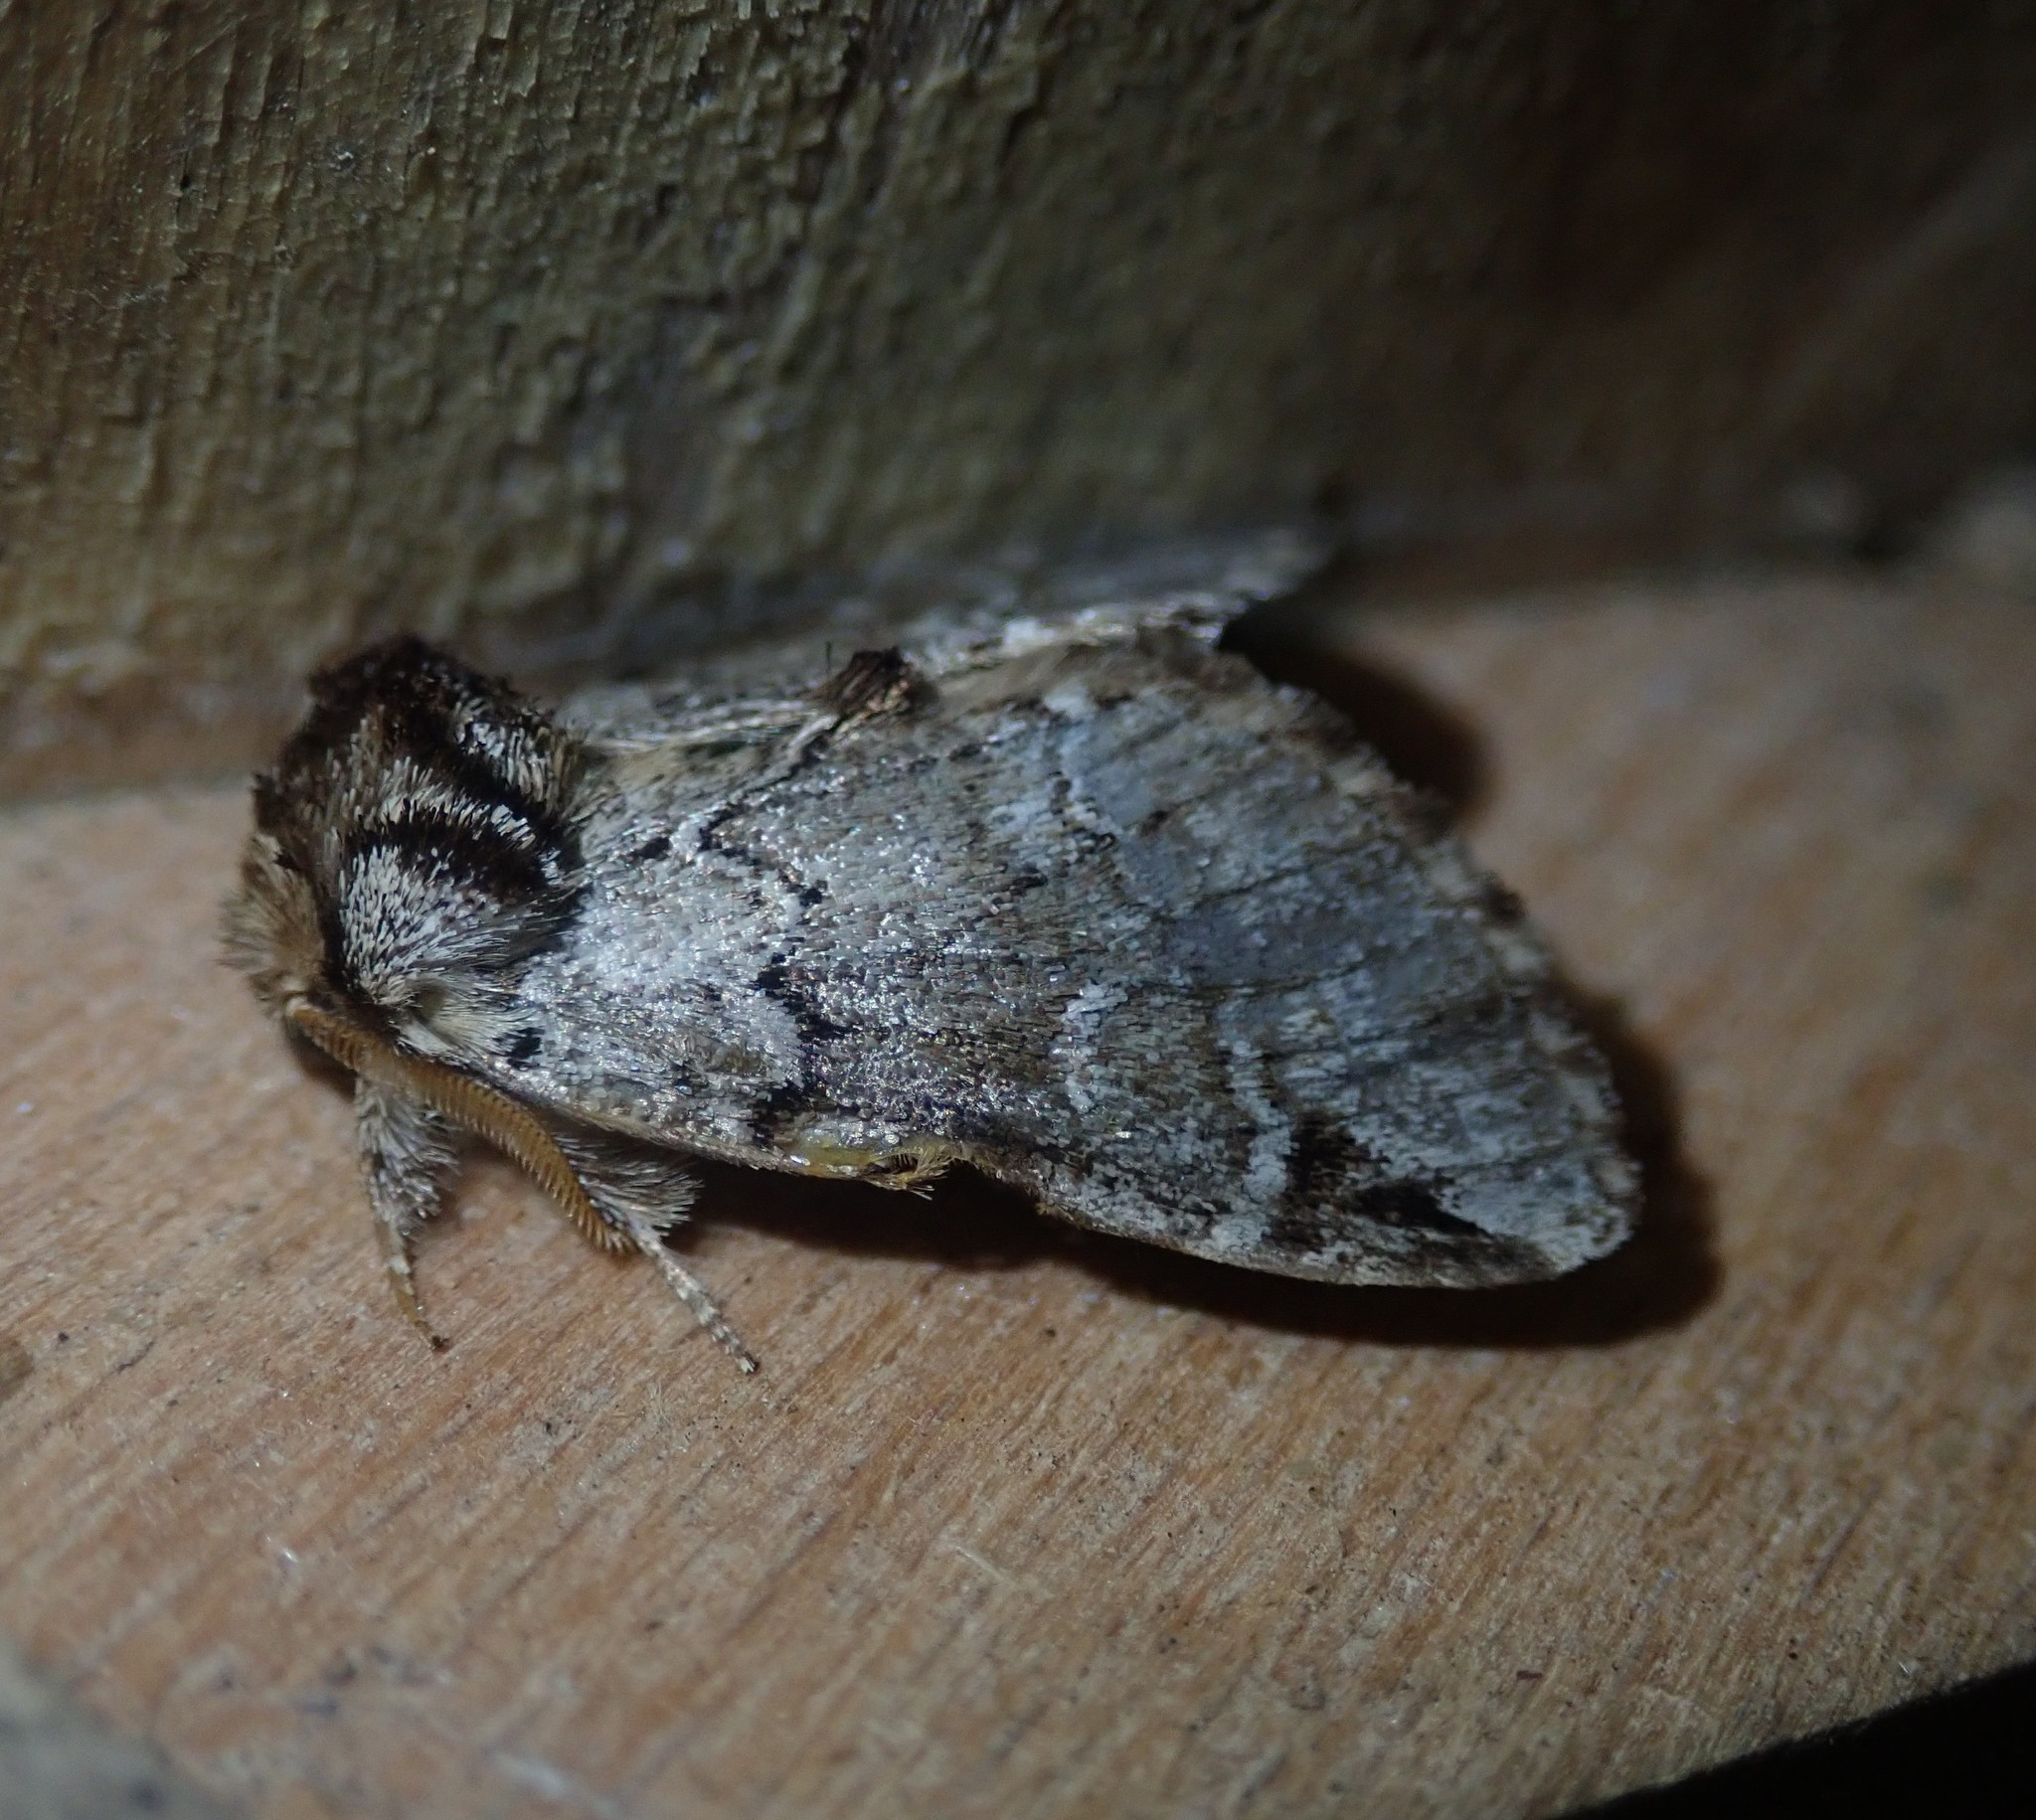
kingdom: Animalia
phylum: Arthropoda
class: Insecta
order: Lepidoptera
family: Notodontidae
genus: Drymonia
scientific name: Drymonia obliterata
